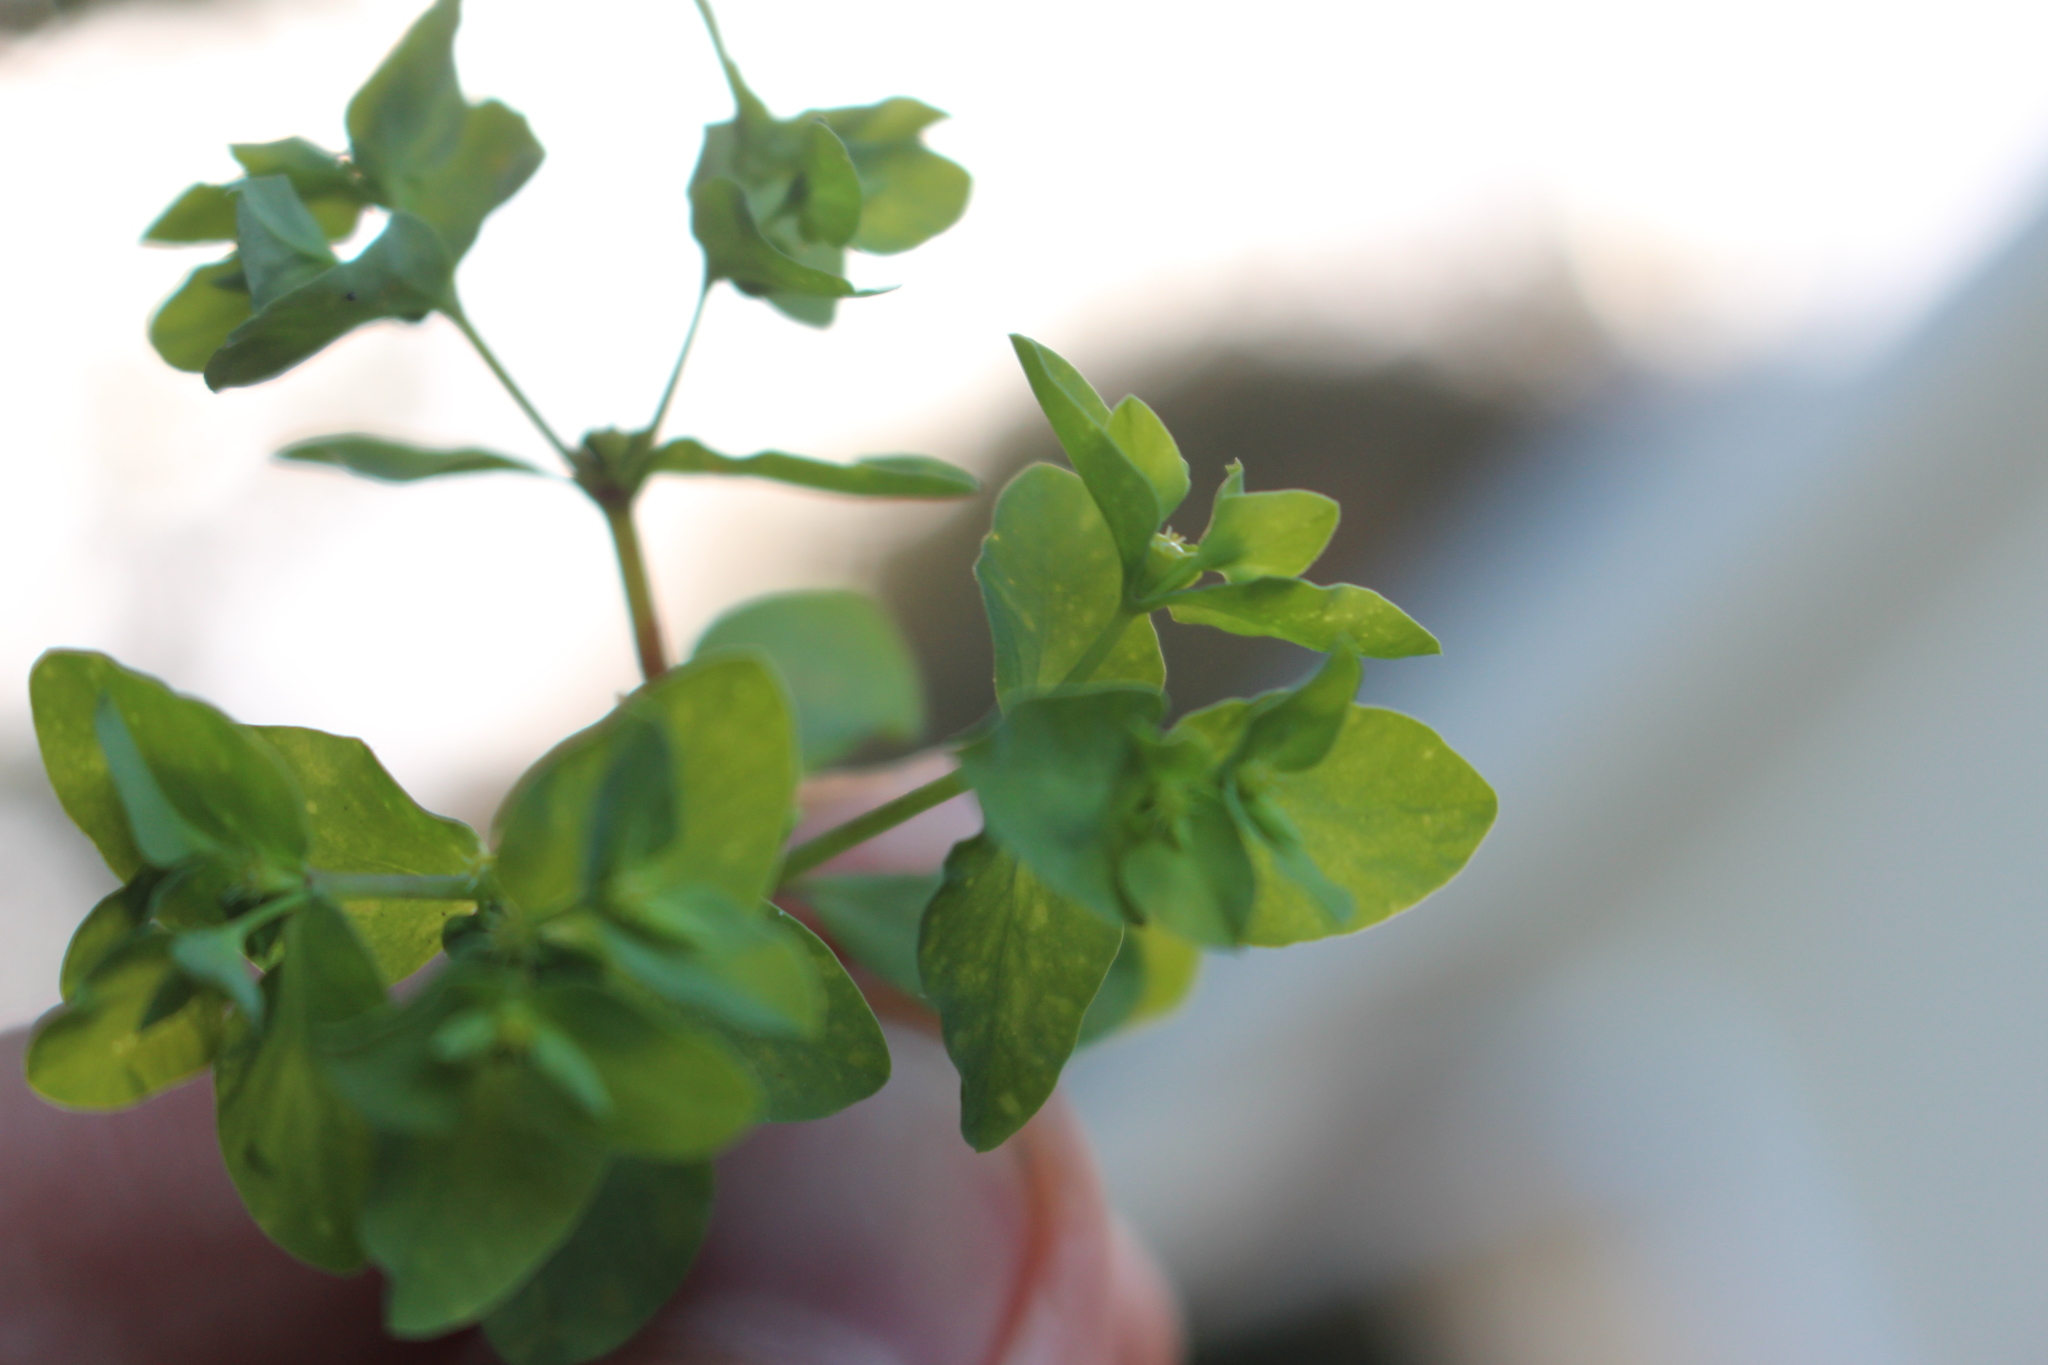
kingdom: Plantae
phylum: Tracheophyta
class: Magnoliopsida
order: Malpighiales
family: Euphorbiaceae
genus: Euphorbia
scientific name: Euphorbia peplus
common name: Petty spurge
